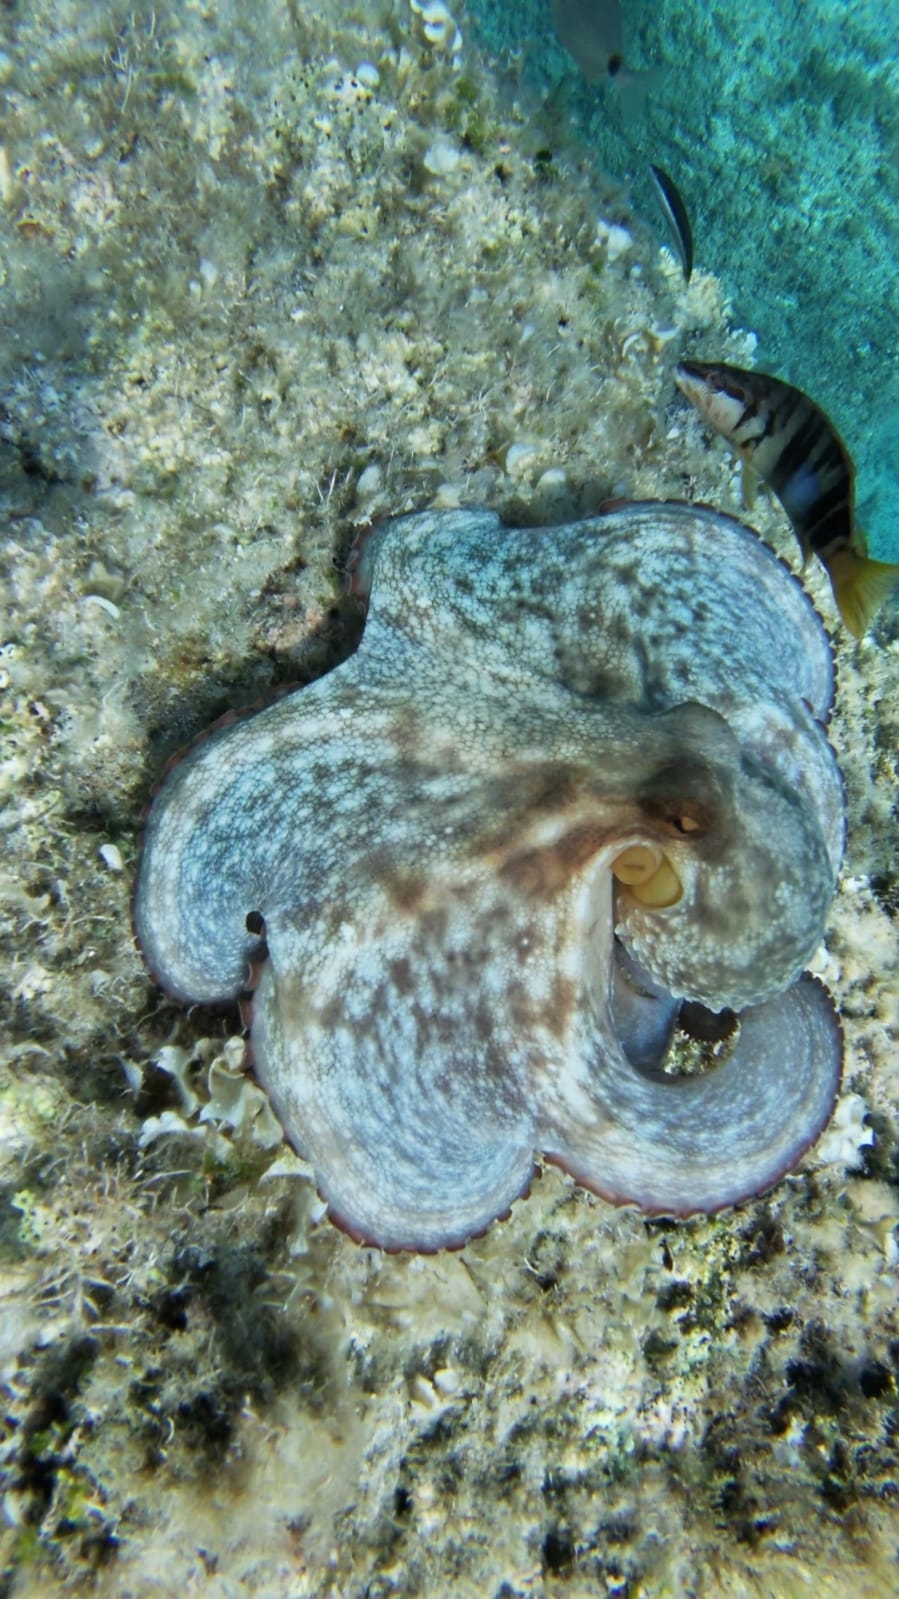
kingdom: Animalia
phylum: Mollusca
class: Cephalopoda
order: Octopoda
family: Octopodidae
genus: Octopus
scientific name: Octopus vulgaris
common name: Common octopus
